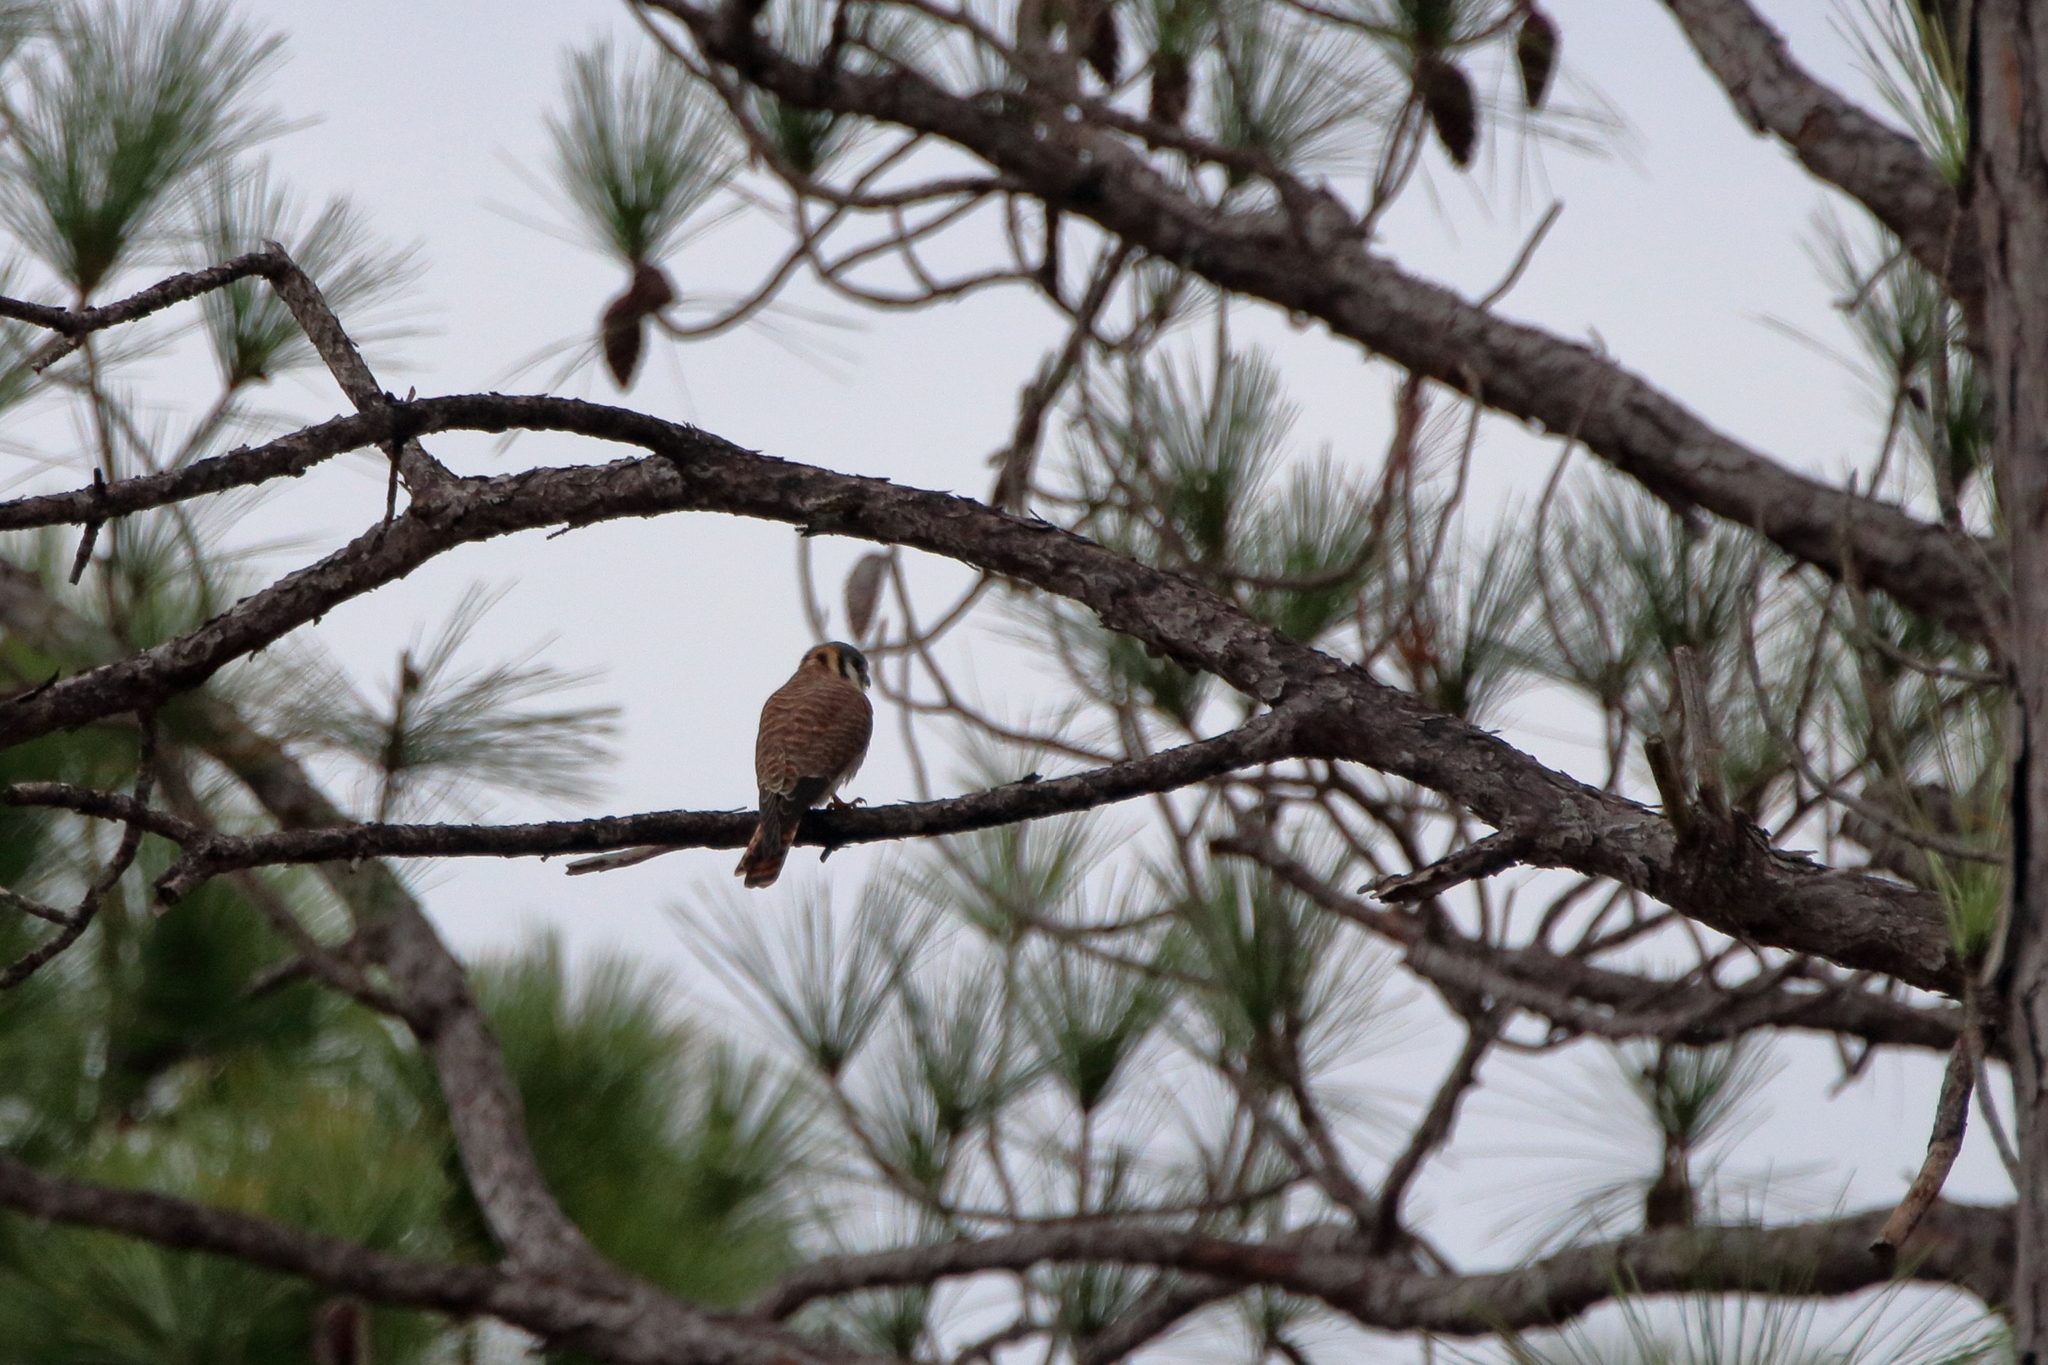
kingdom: Animalia
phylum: Chordata
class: Aves
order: Falconiformes
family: Falconidae
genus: Falco
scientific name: Falco sparverius
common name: American kestrel
